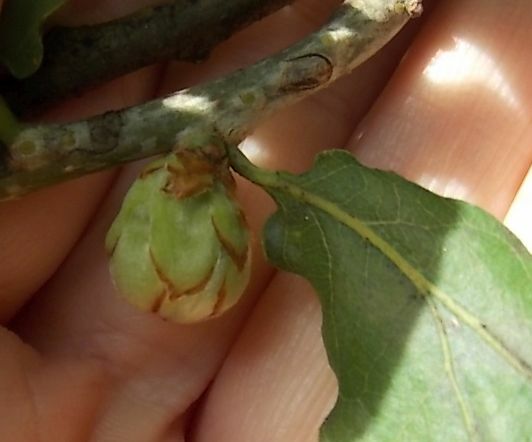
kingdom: Animalia
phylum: Arthropoda
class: Insecta
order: Hymenoptera
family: Cynipidae
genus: Andricus
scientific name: Andricus foecundatrix
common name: Artichoke gall
